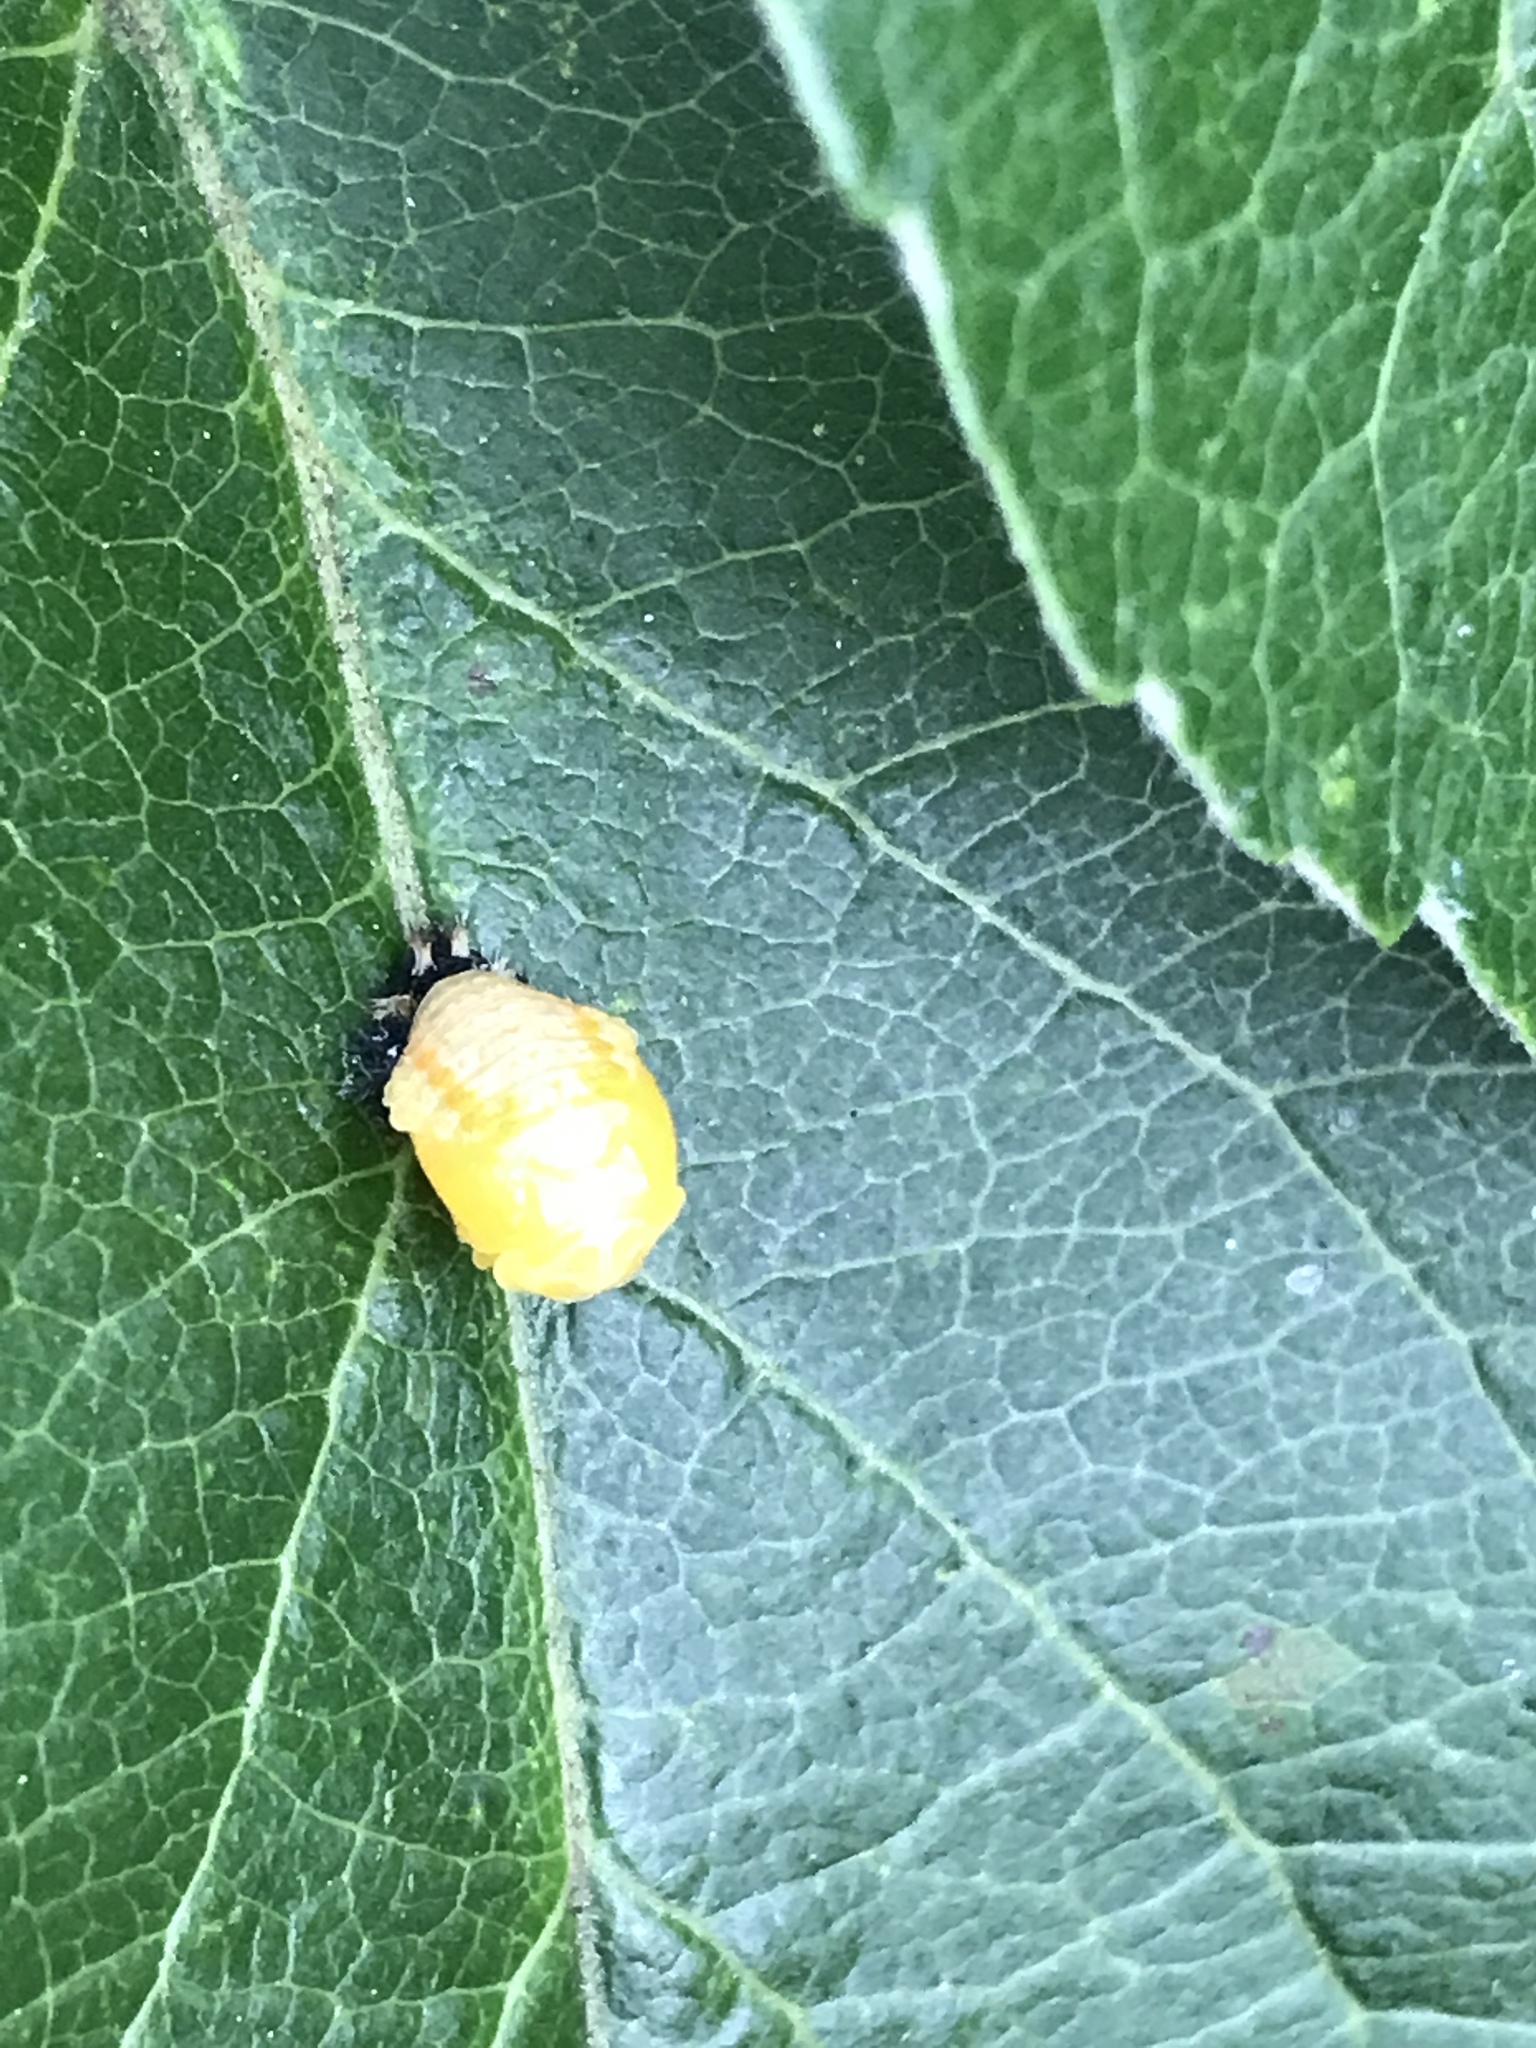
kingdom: Animalia
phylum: Arthropoda
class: Insecta
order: Coleoptera
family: Coccinellidae
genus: Harmonia
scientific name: Harmonia axyridis
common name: Harlequin ladybird
